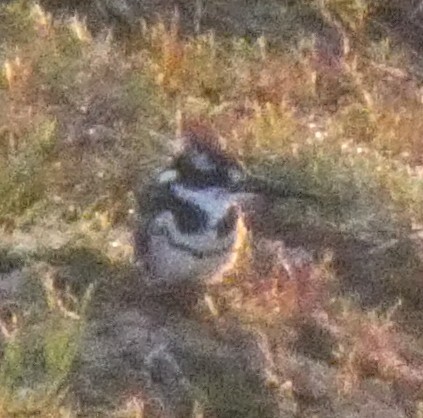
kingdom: Animalia
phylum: Chordata
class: Aves
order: Coraciiformes
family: Alcedinidae
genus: Ceryle
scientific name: Ceryle rudis
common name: Pied kingfisher
